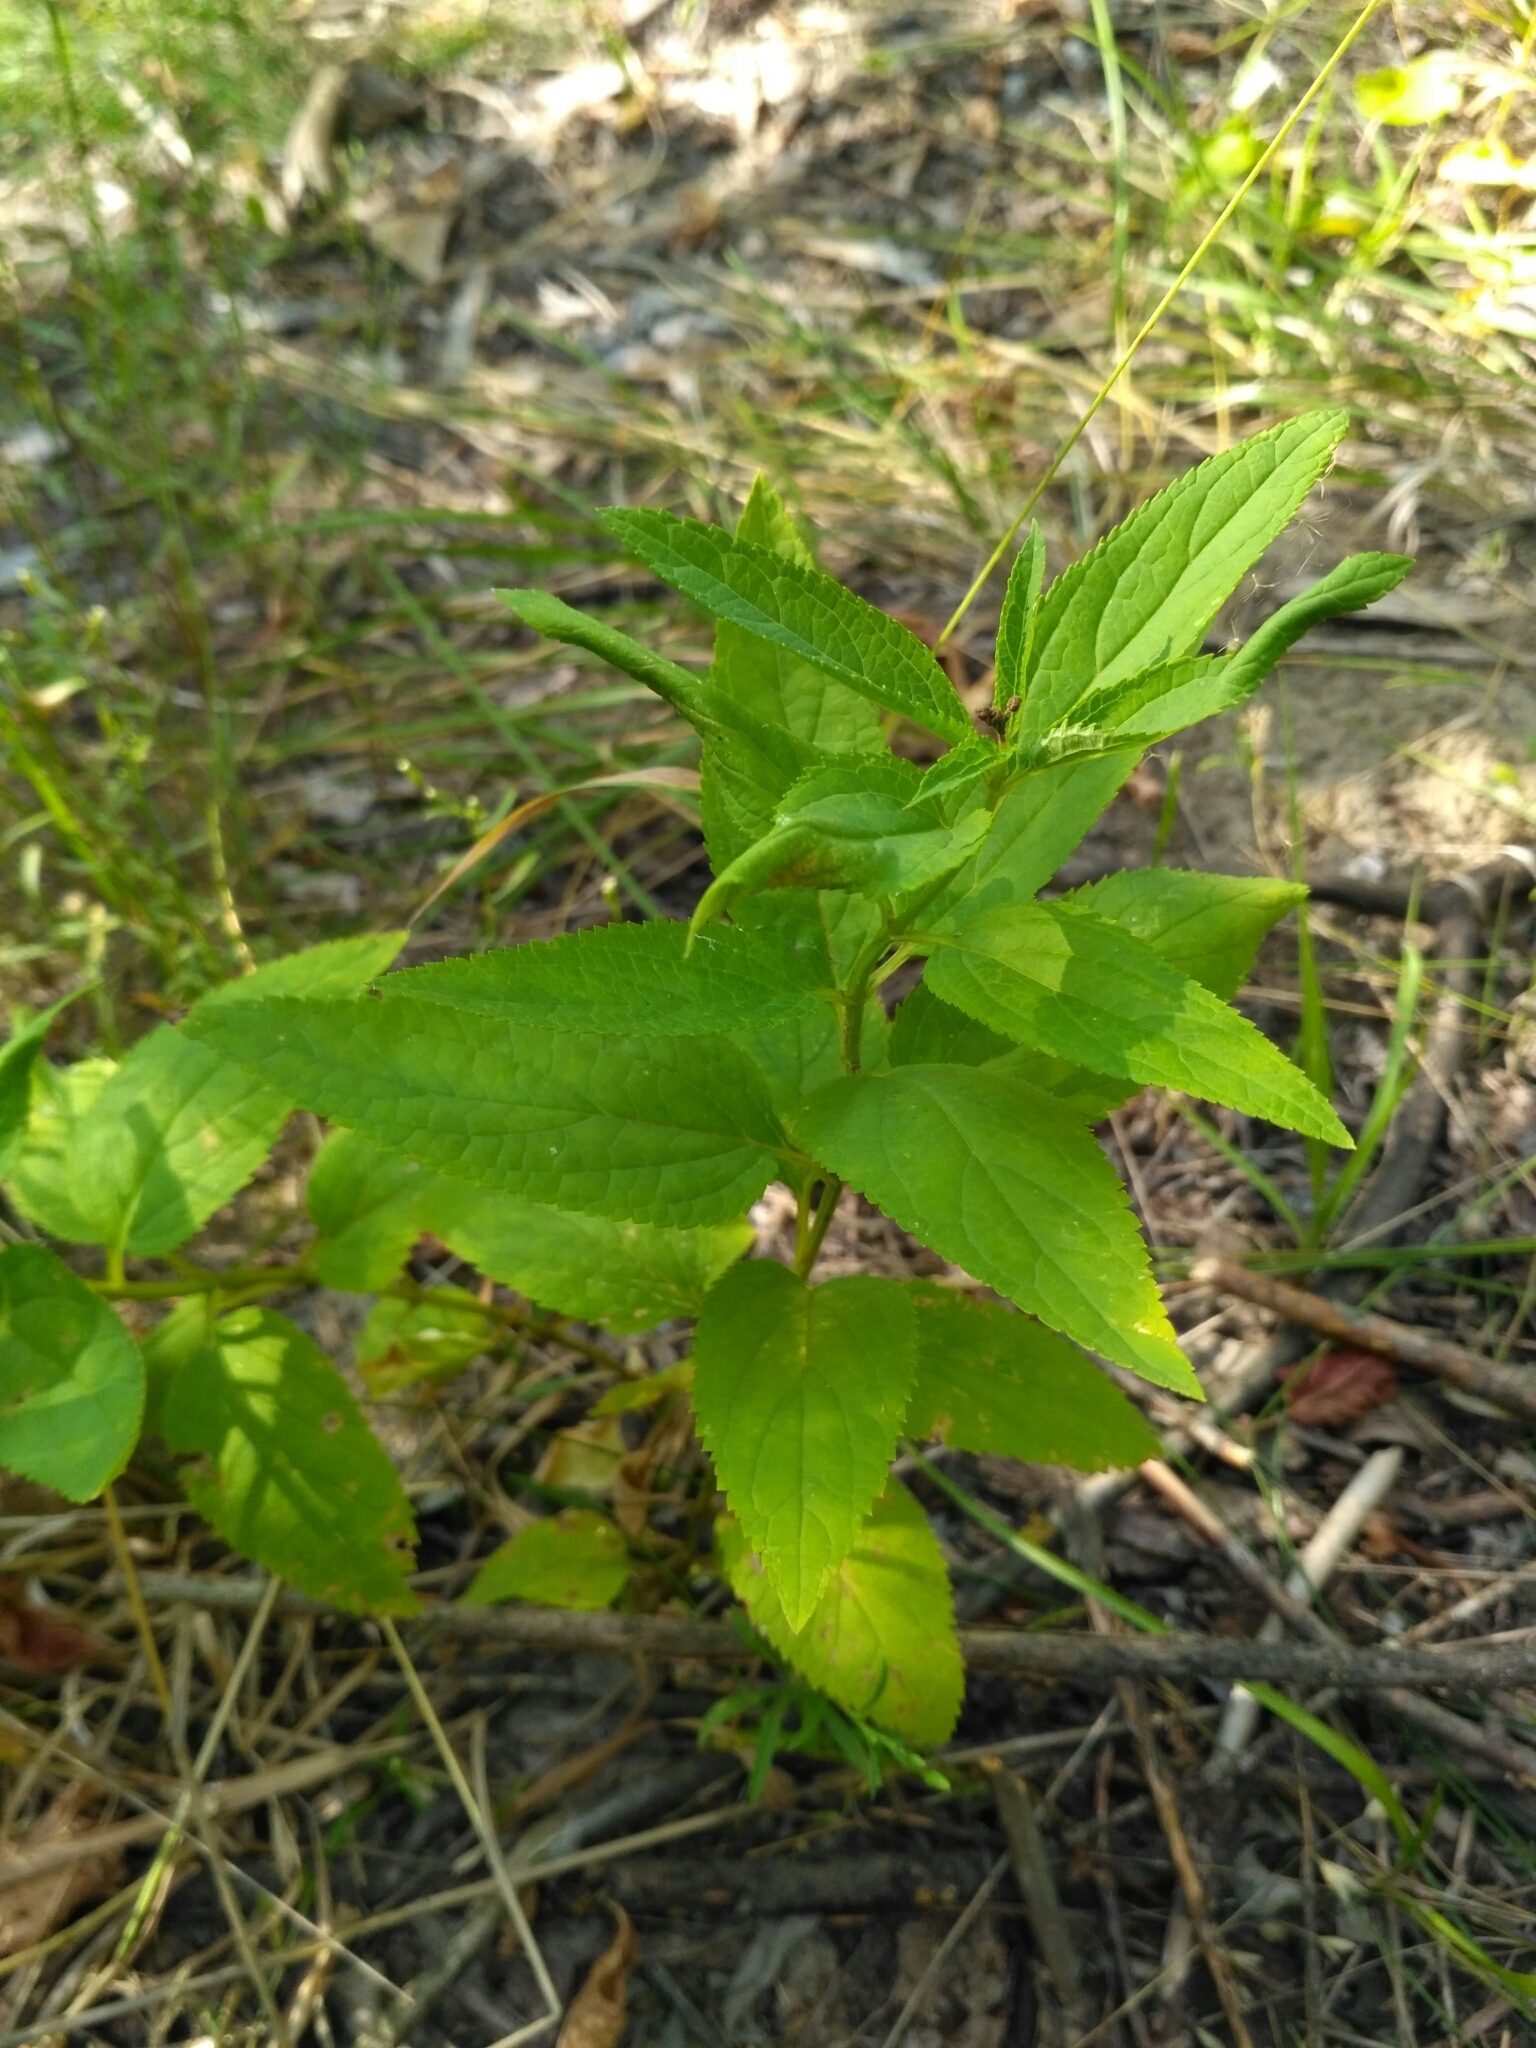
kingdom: Plantae
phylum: Tracheophyta
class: Magnoliopsida
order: Lamiales
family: Scrophulariaceae
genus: Scrophularia
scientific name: Scrophularia nodosa
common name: Common figwort
